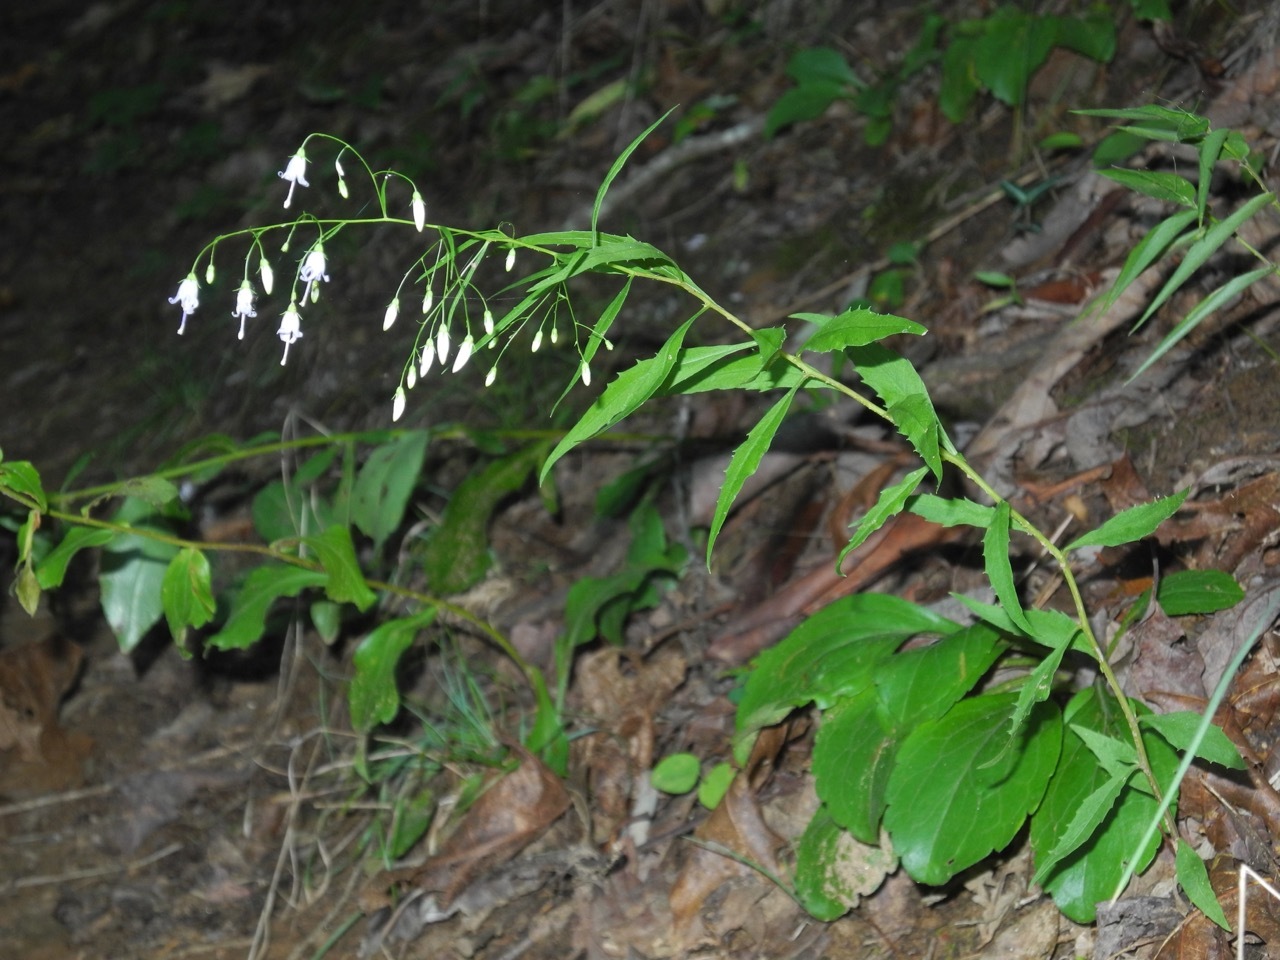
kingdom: Plantae
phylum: Tracheophyta
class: Magnoliopsida
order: Asterales
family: Campanulaceae
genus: Campanula
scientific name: Campanula divaricata
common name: Appalachian bellflower
